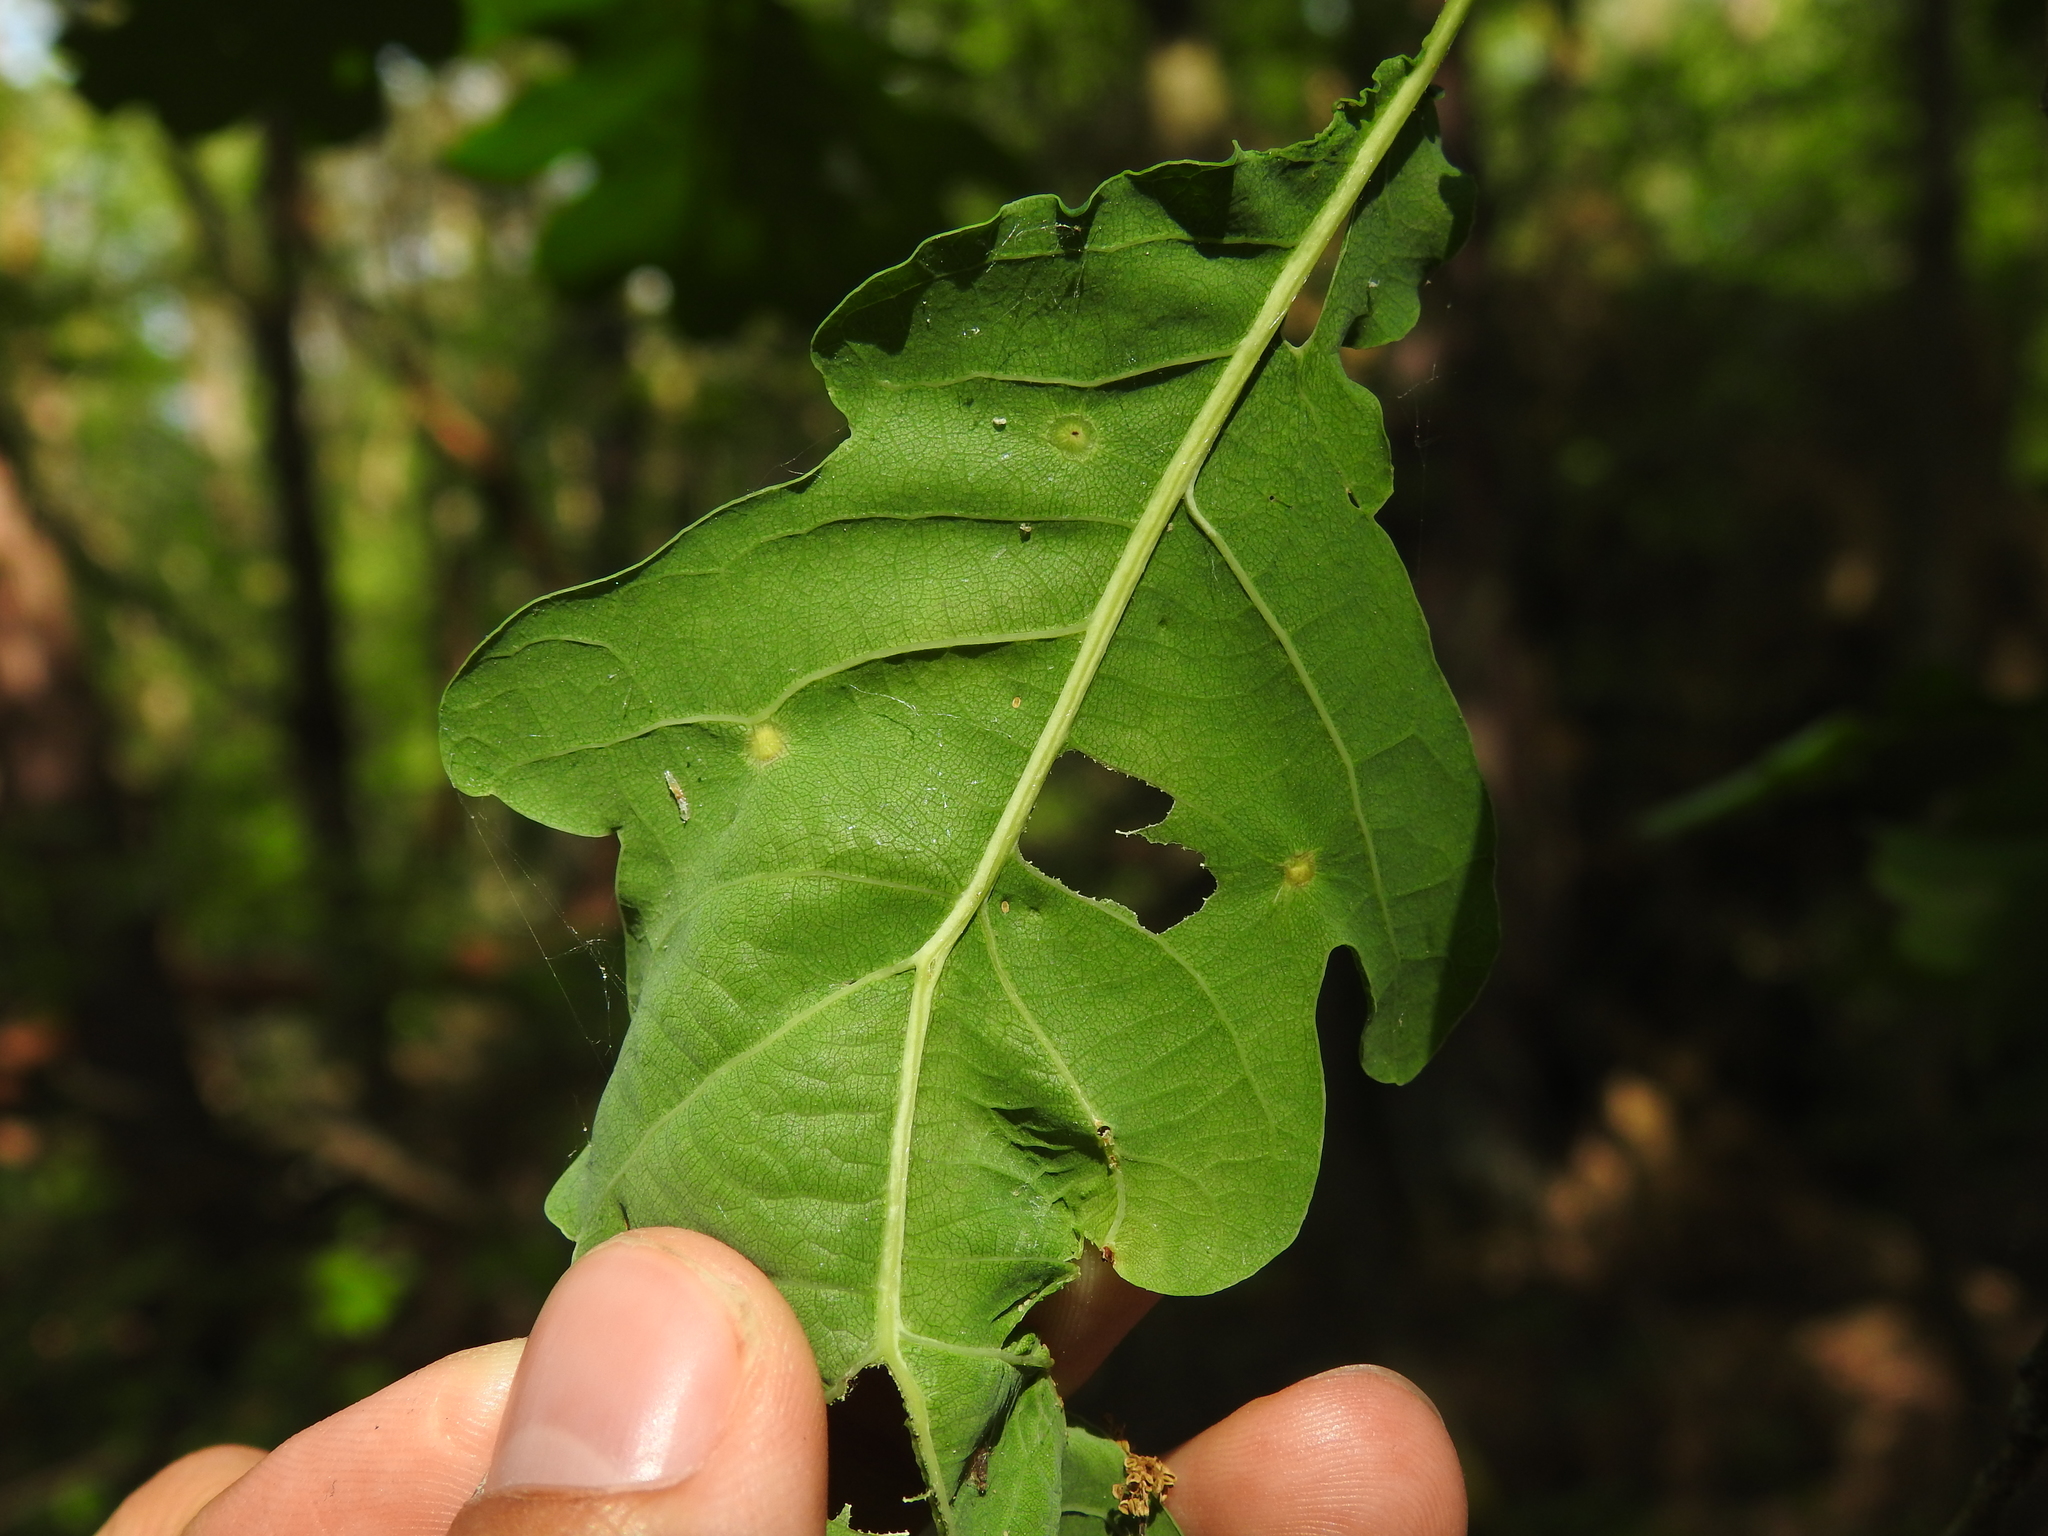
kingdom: Animalia
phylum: Arthropoda
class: Insecta
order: Hymenoptera
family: Cynipidae
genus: Neuroterus
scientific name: Neuroterus numismalis
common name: Silk-button spangle gall
